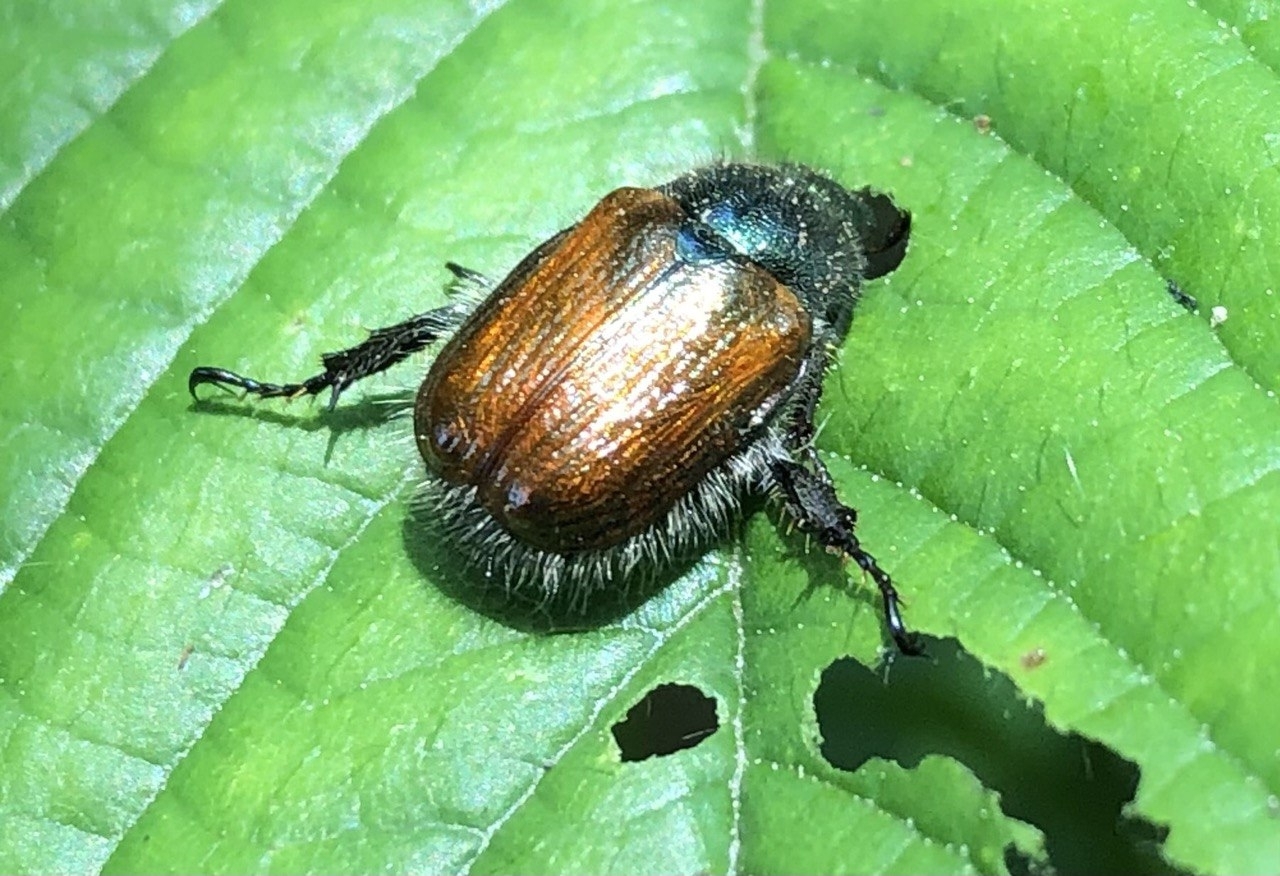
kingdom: Animalia
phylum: Arthropoda
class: Insecta
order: Coleoptera
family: Scarabaeidae
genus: Phyllopertha
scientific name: Phyllopertha horticola
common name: Garden chafer
